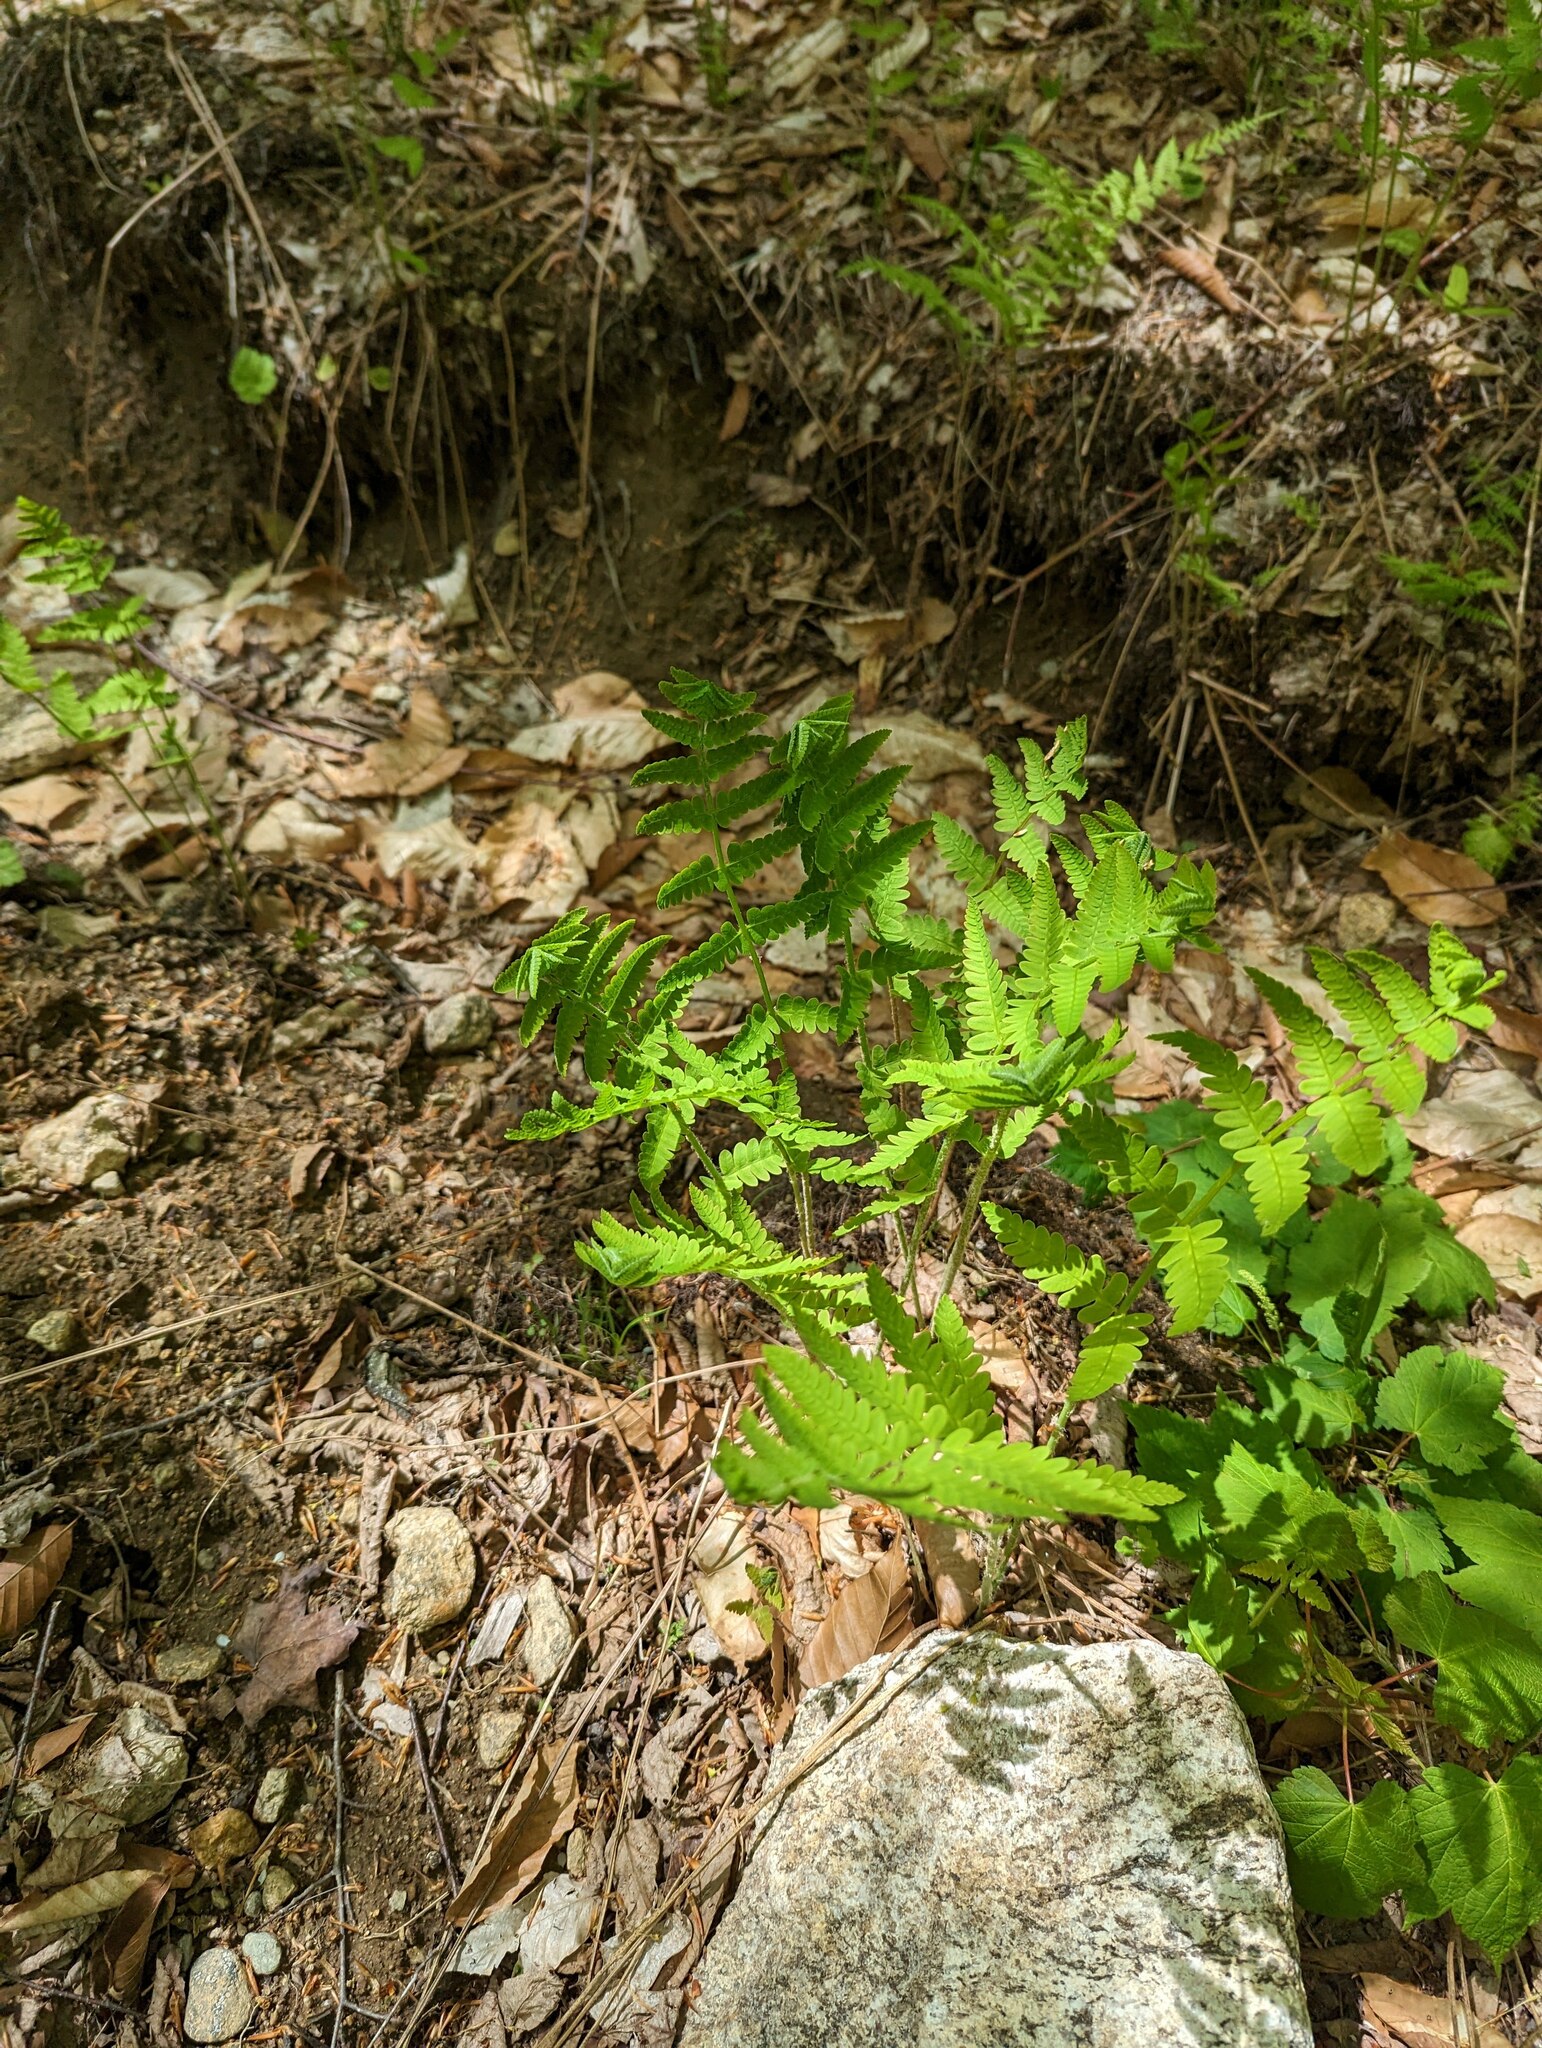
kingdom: Plantae
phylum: Tracheophyta
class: Polypodiopsida
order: Osmundales
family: Osmundaceae
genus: Claytosmunda
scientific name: Claytosmunda claytoniana
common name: Clayton's fern
